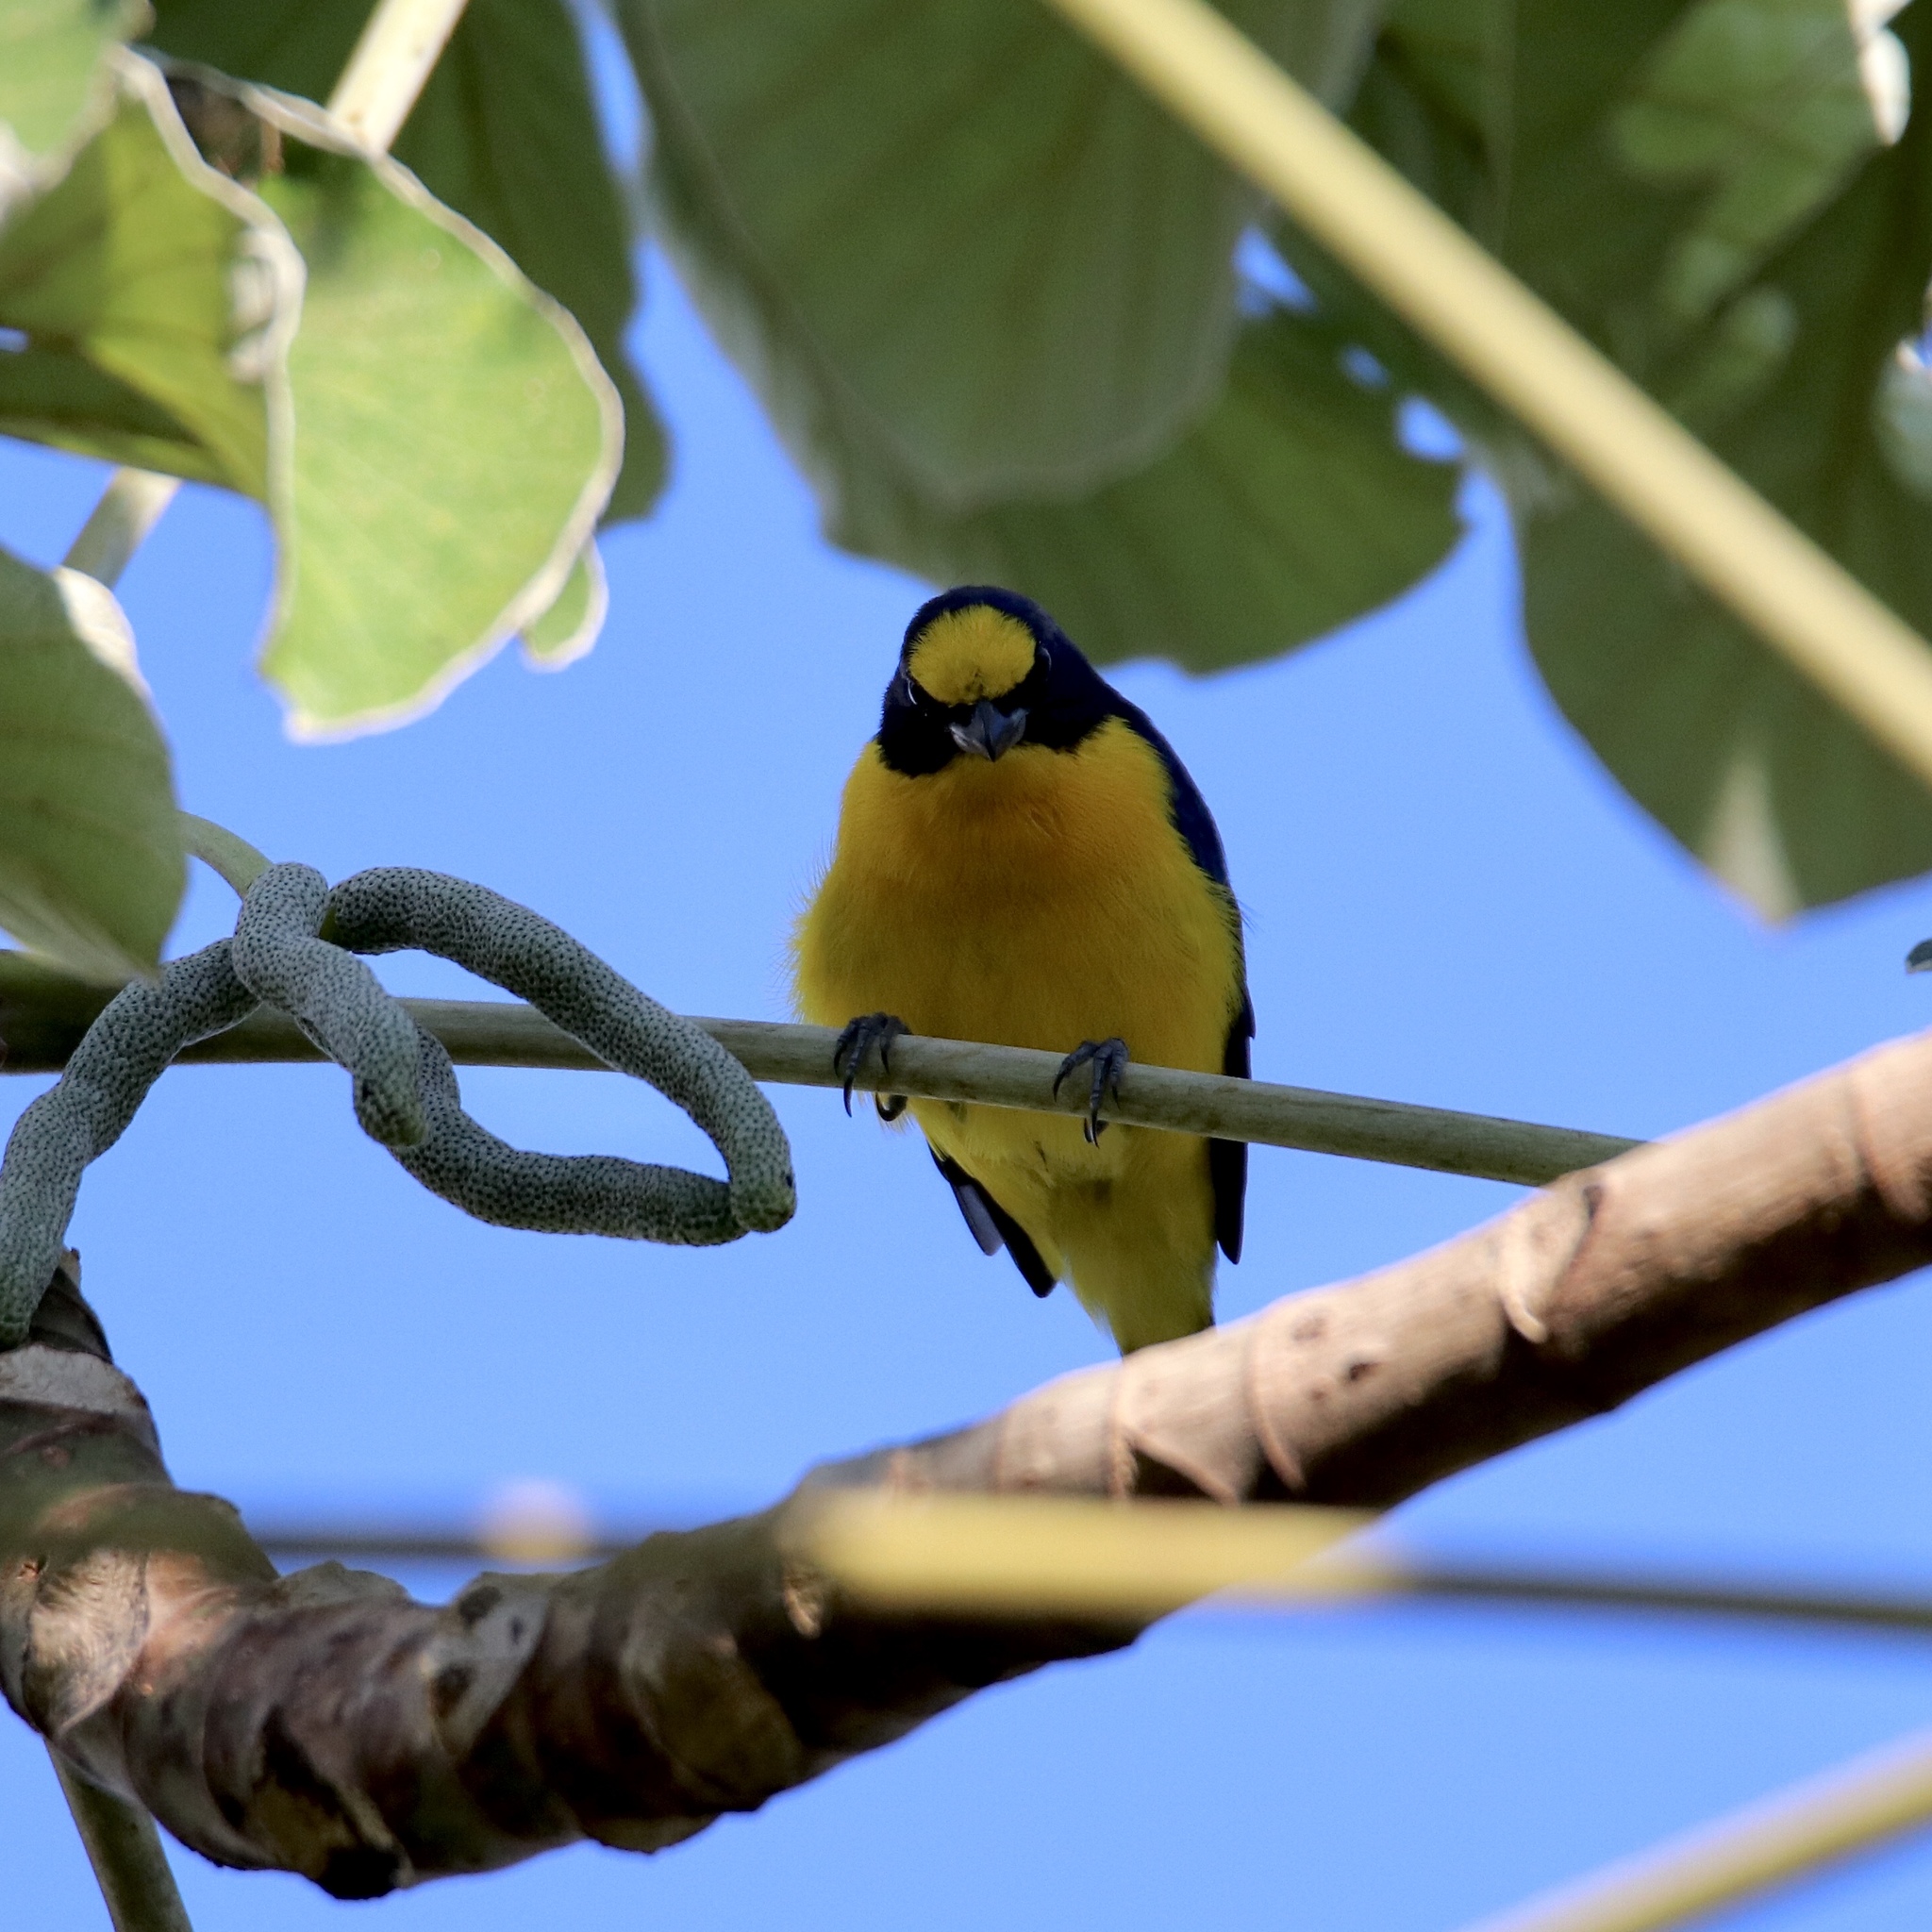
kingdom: Animalia
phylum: Chordata
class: Aves
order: Passeriformes
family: Fringillidae
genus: Euphonia
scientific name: Euphonia laniirostris
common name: Thick-billed euphonia
